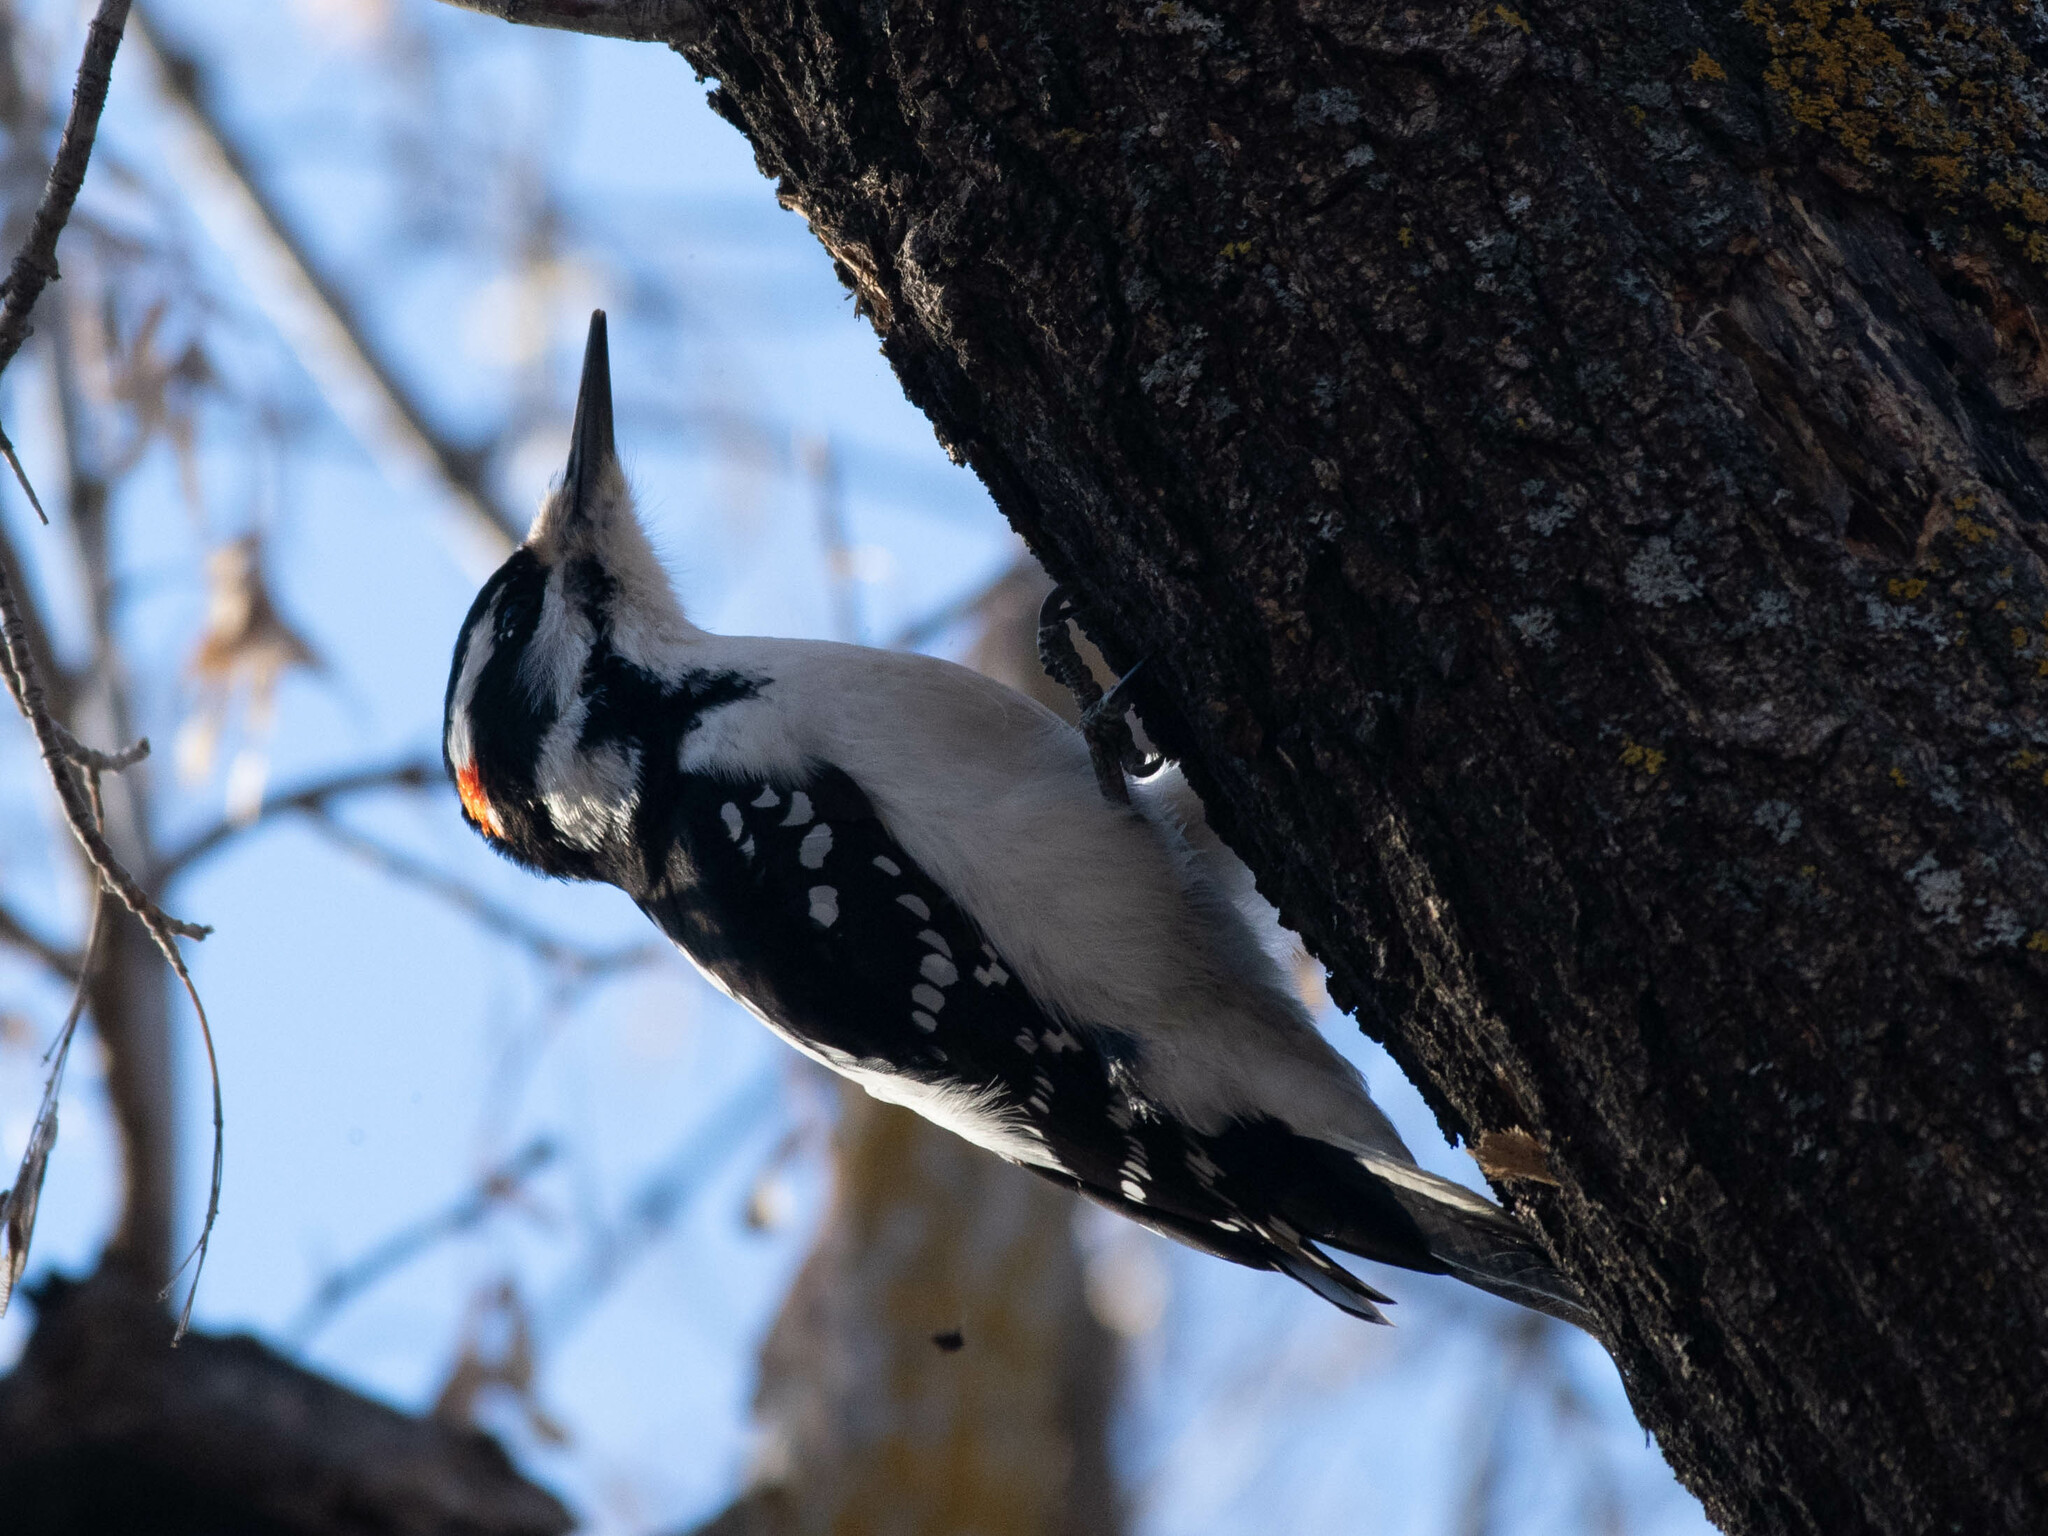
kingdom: Animalia
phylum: Chordata
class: Aves
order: Piciformes
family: Picidae
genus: Leuconotopicus
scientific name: Leuconotopicus villosus
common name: Hairy woodpecker
